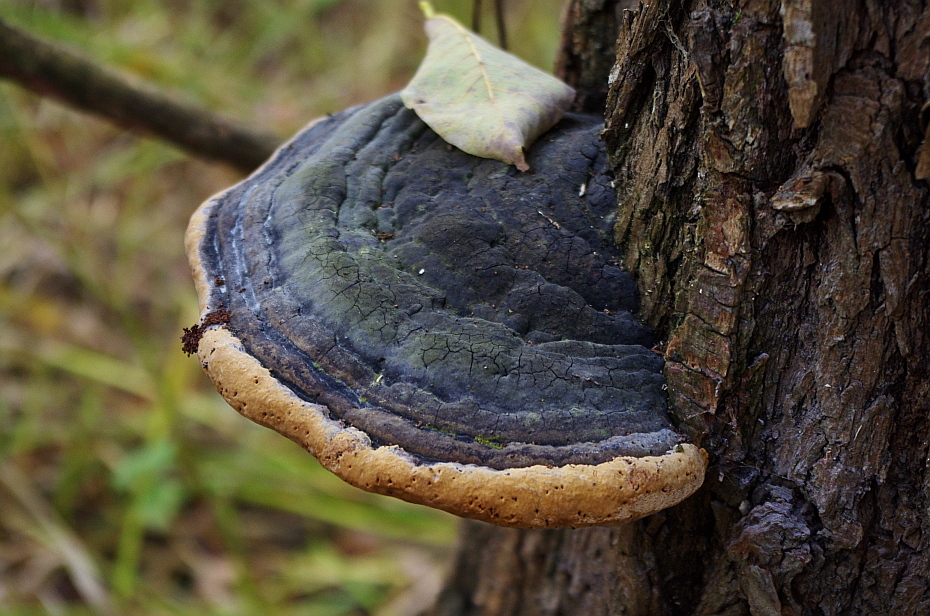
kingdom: Fungi
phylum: Basidiomycota
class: Agaricomycetes
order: Polyporales
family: Fomitopsidaceae
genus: Fomitopsis
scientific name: Fomitopsis pinicola
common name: Red-belted bracket
